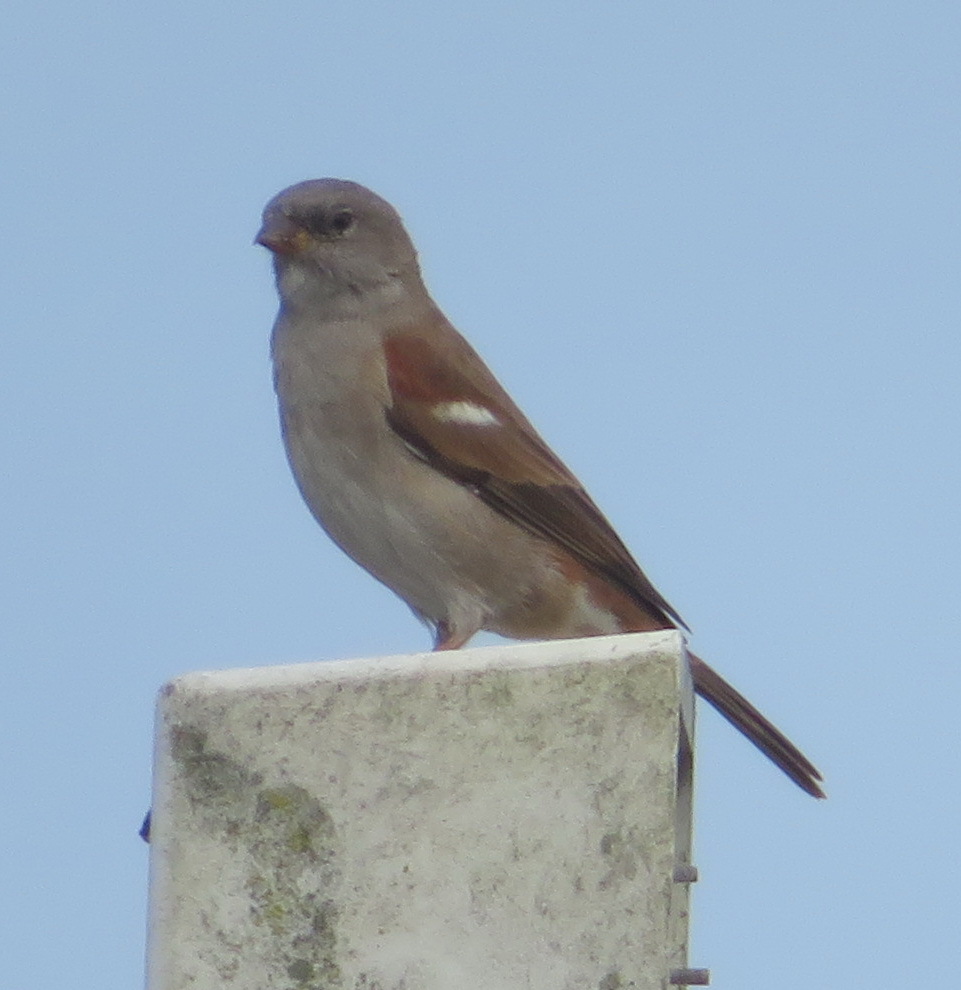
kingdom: Animalia
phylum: Chordata
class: Aves
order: Passeriformes
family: Passeridae
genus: Passer
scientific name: Passer diffusus
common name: Southern grey-headed sparrow
